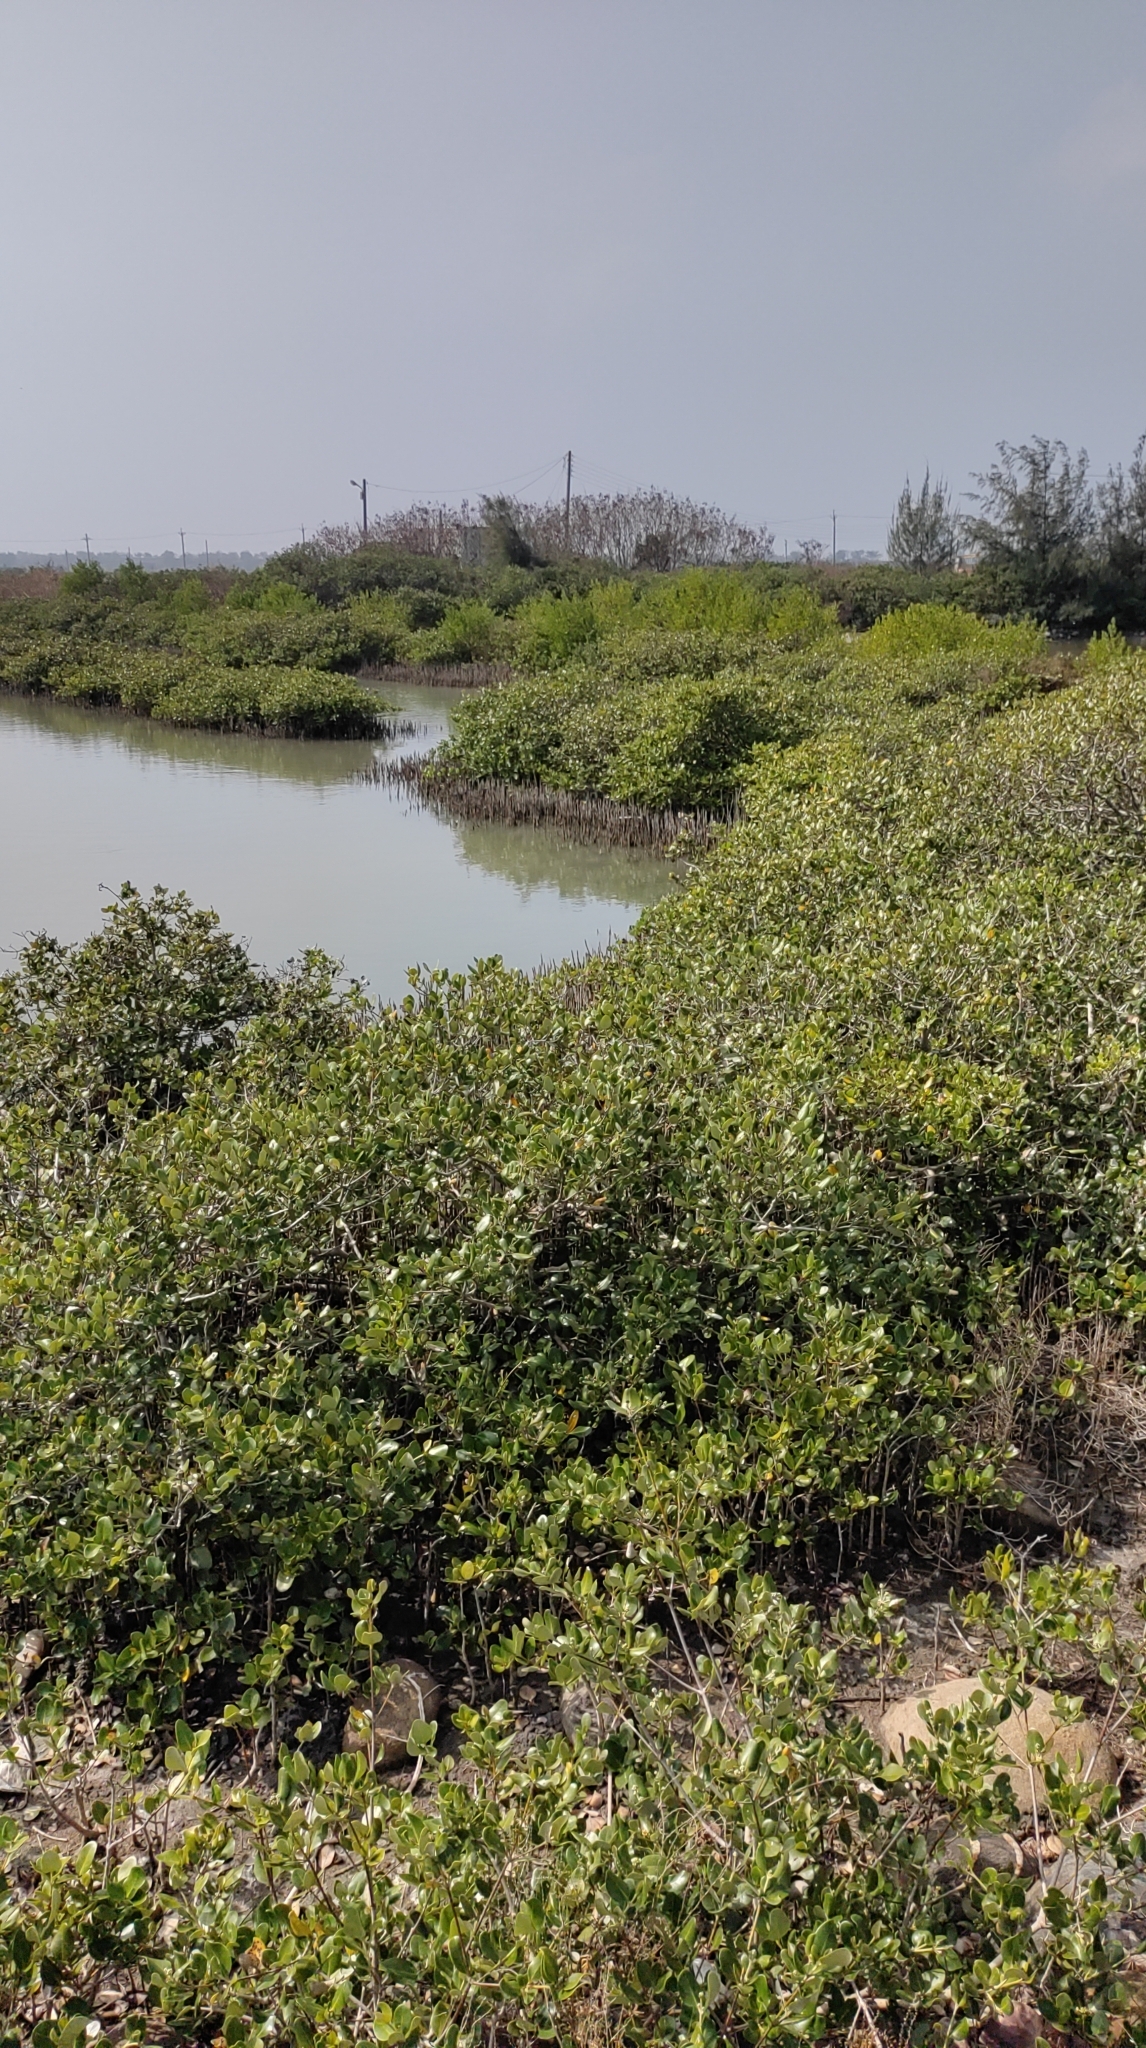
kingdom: Plantae
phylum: Tracheophyta
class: Magnoliopsida
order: Lamiales
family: Acanthaceae
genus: Avicennia
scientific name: Avicennia marina
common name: Gray mangrove
